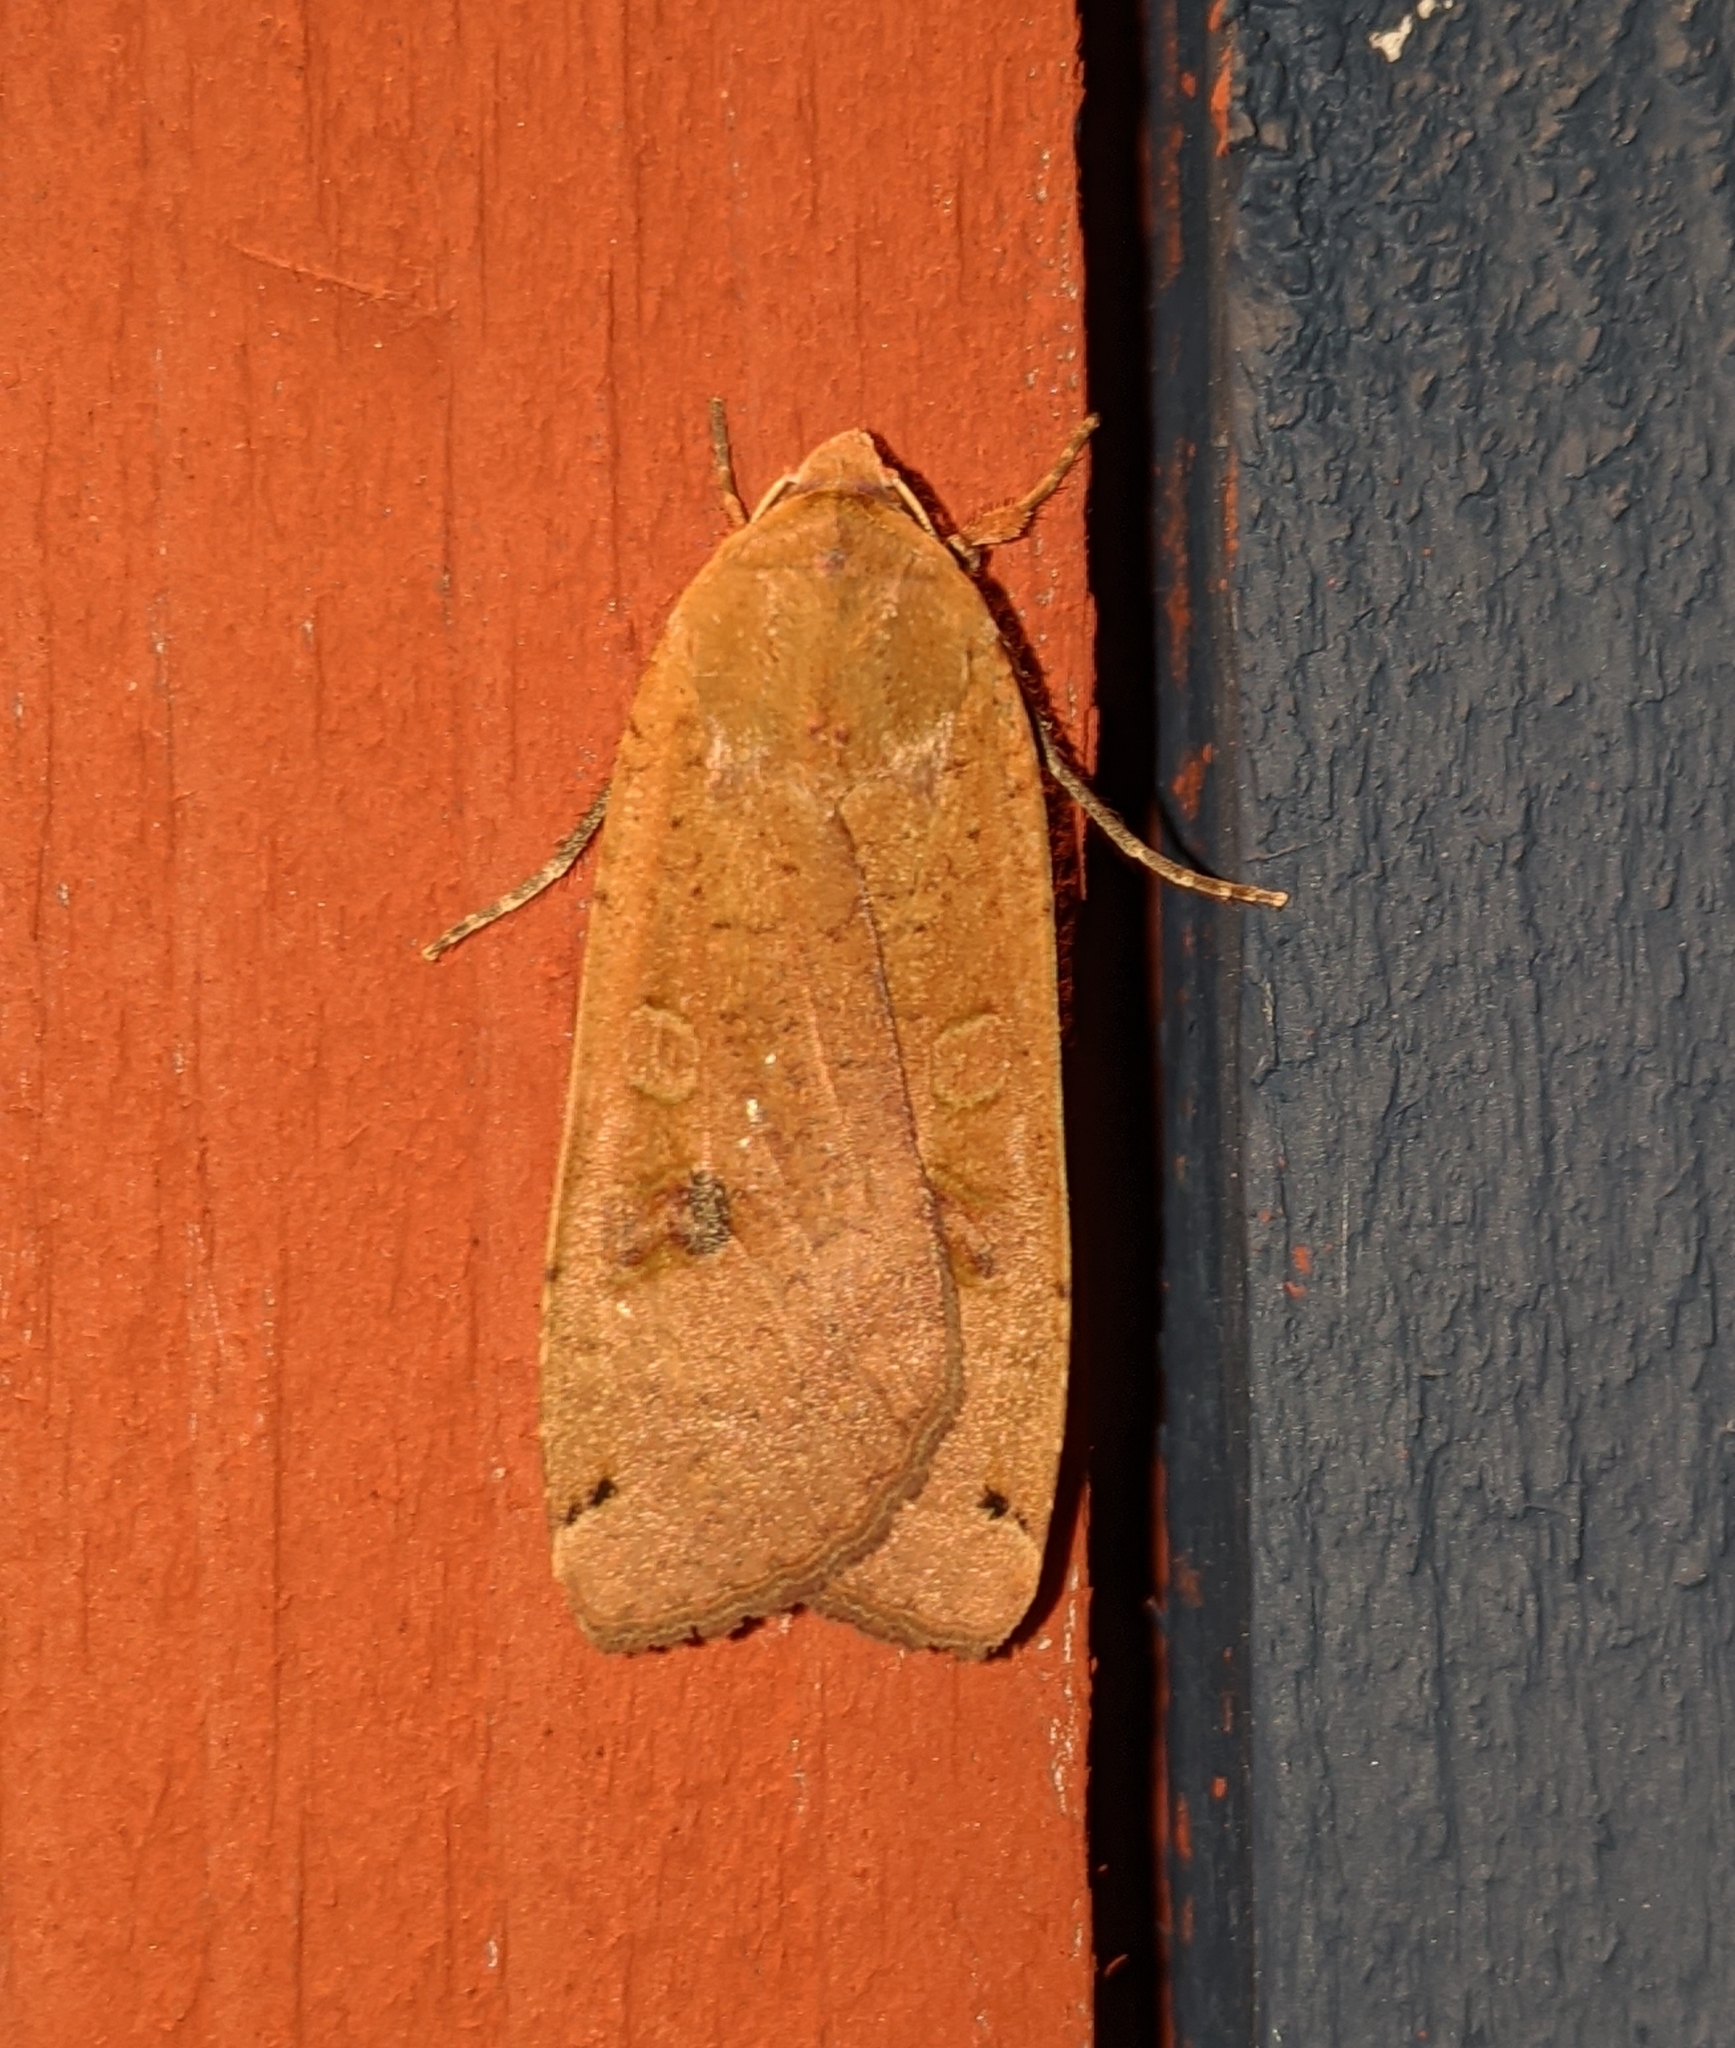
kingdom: Animalia
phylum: Arthropoda
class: Insecta
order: Lepidoptera
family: Noctuidae
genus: Noctua
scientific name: Noctua pronuba
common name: Large yellow underwing
